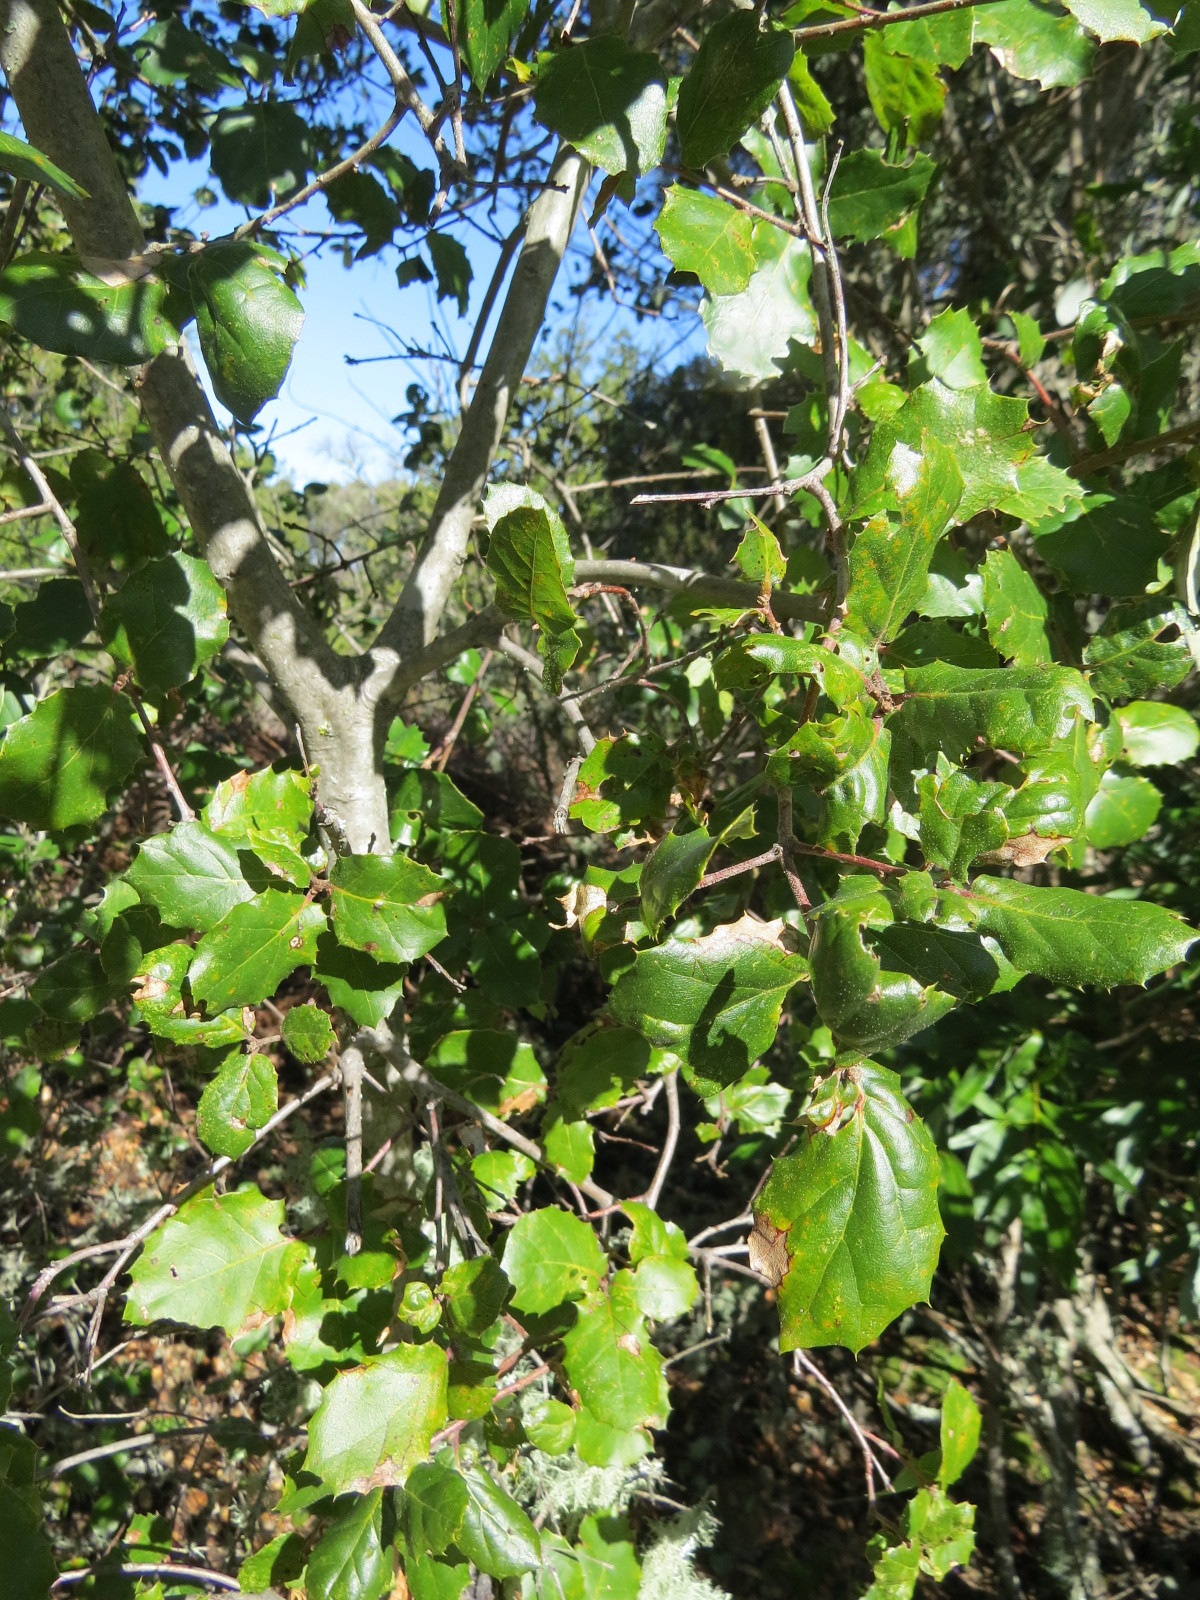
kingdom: Plantae
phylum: Tracheophyta
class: Magnoliopsida
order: Fagales
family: Fagaceae
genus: Quercus
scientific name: Quercus agrifolia
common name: California live oak
